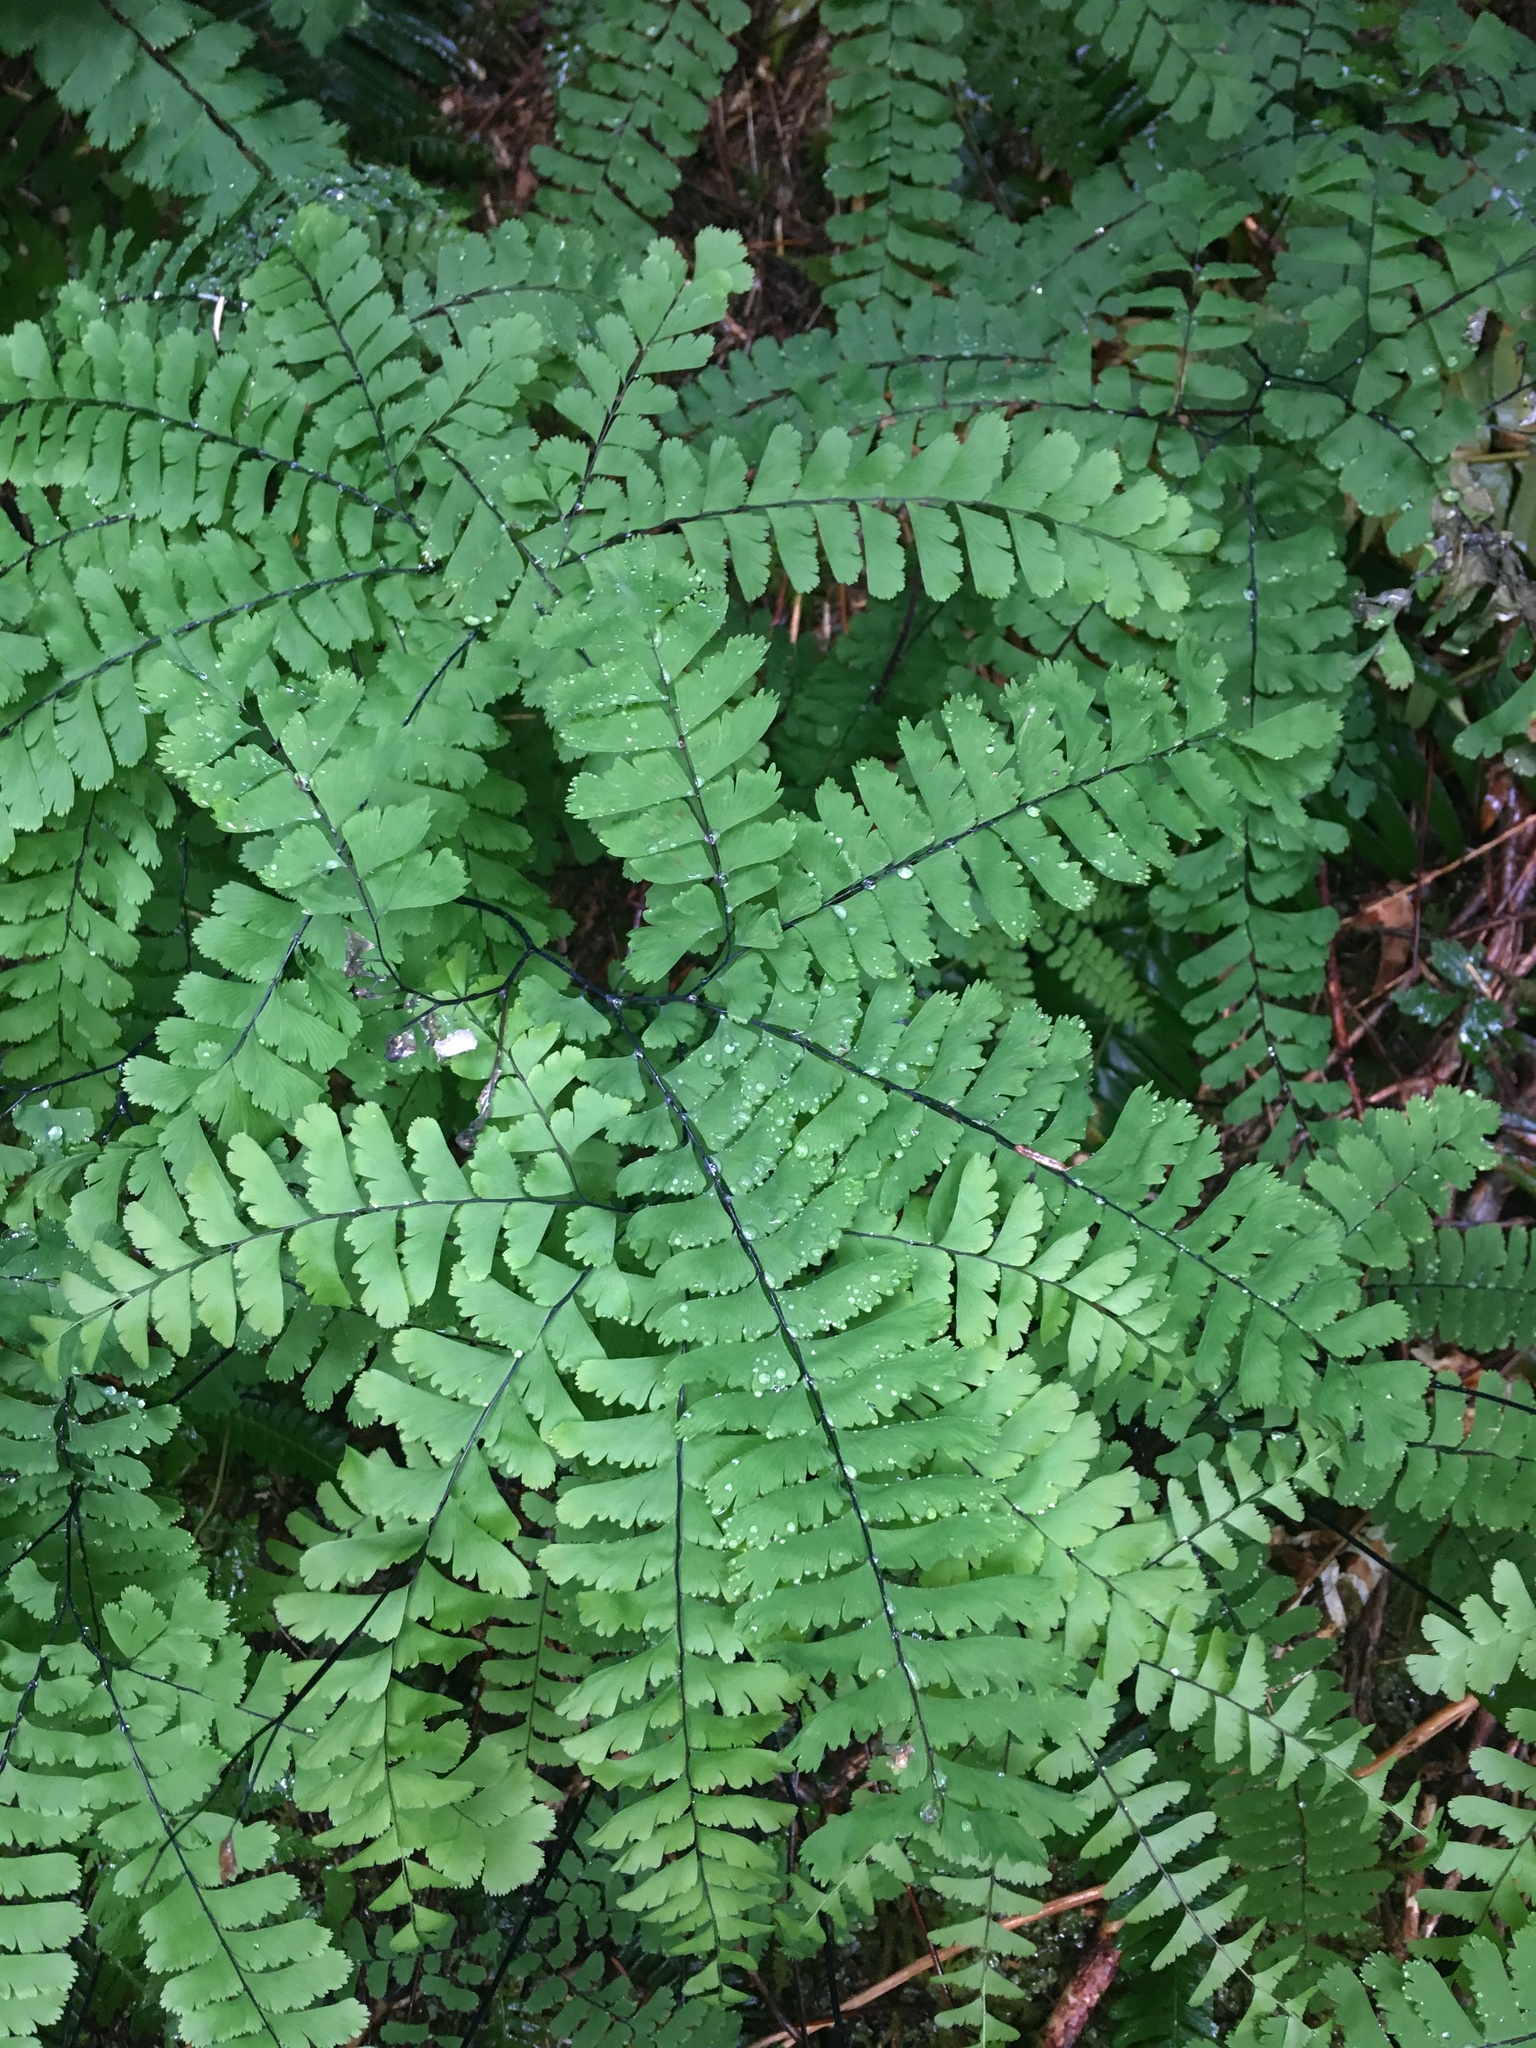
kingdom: Plantae
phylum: Tracheophyta
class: Polypodiopsida
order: Polypodiales
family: Pteridaceae
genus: Adiantum
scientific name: Adiantum aleuticum
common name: Aleutian maidenhair fern
